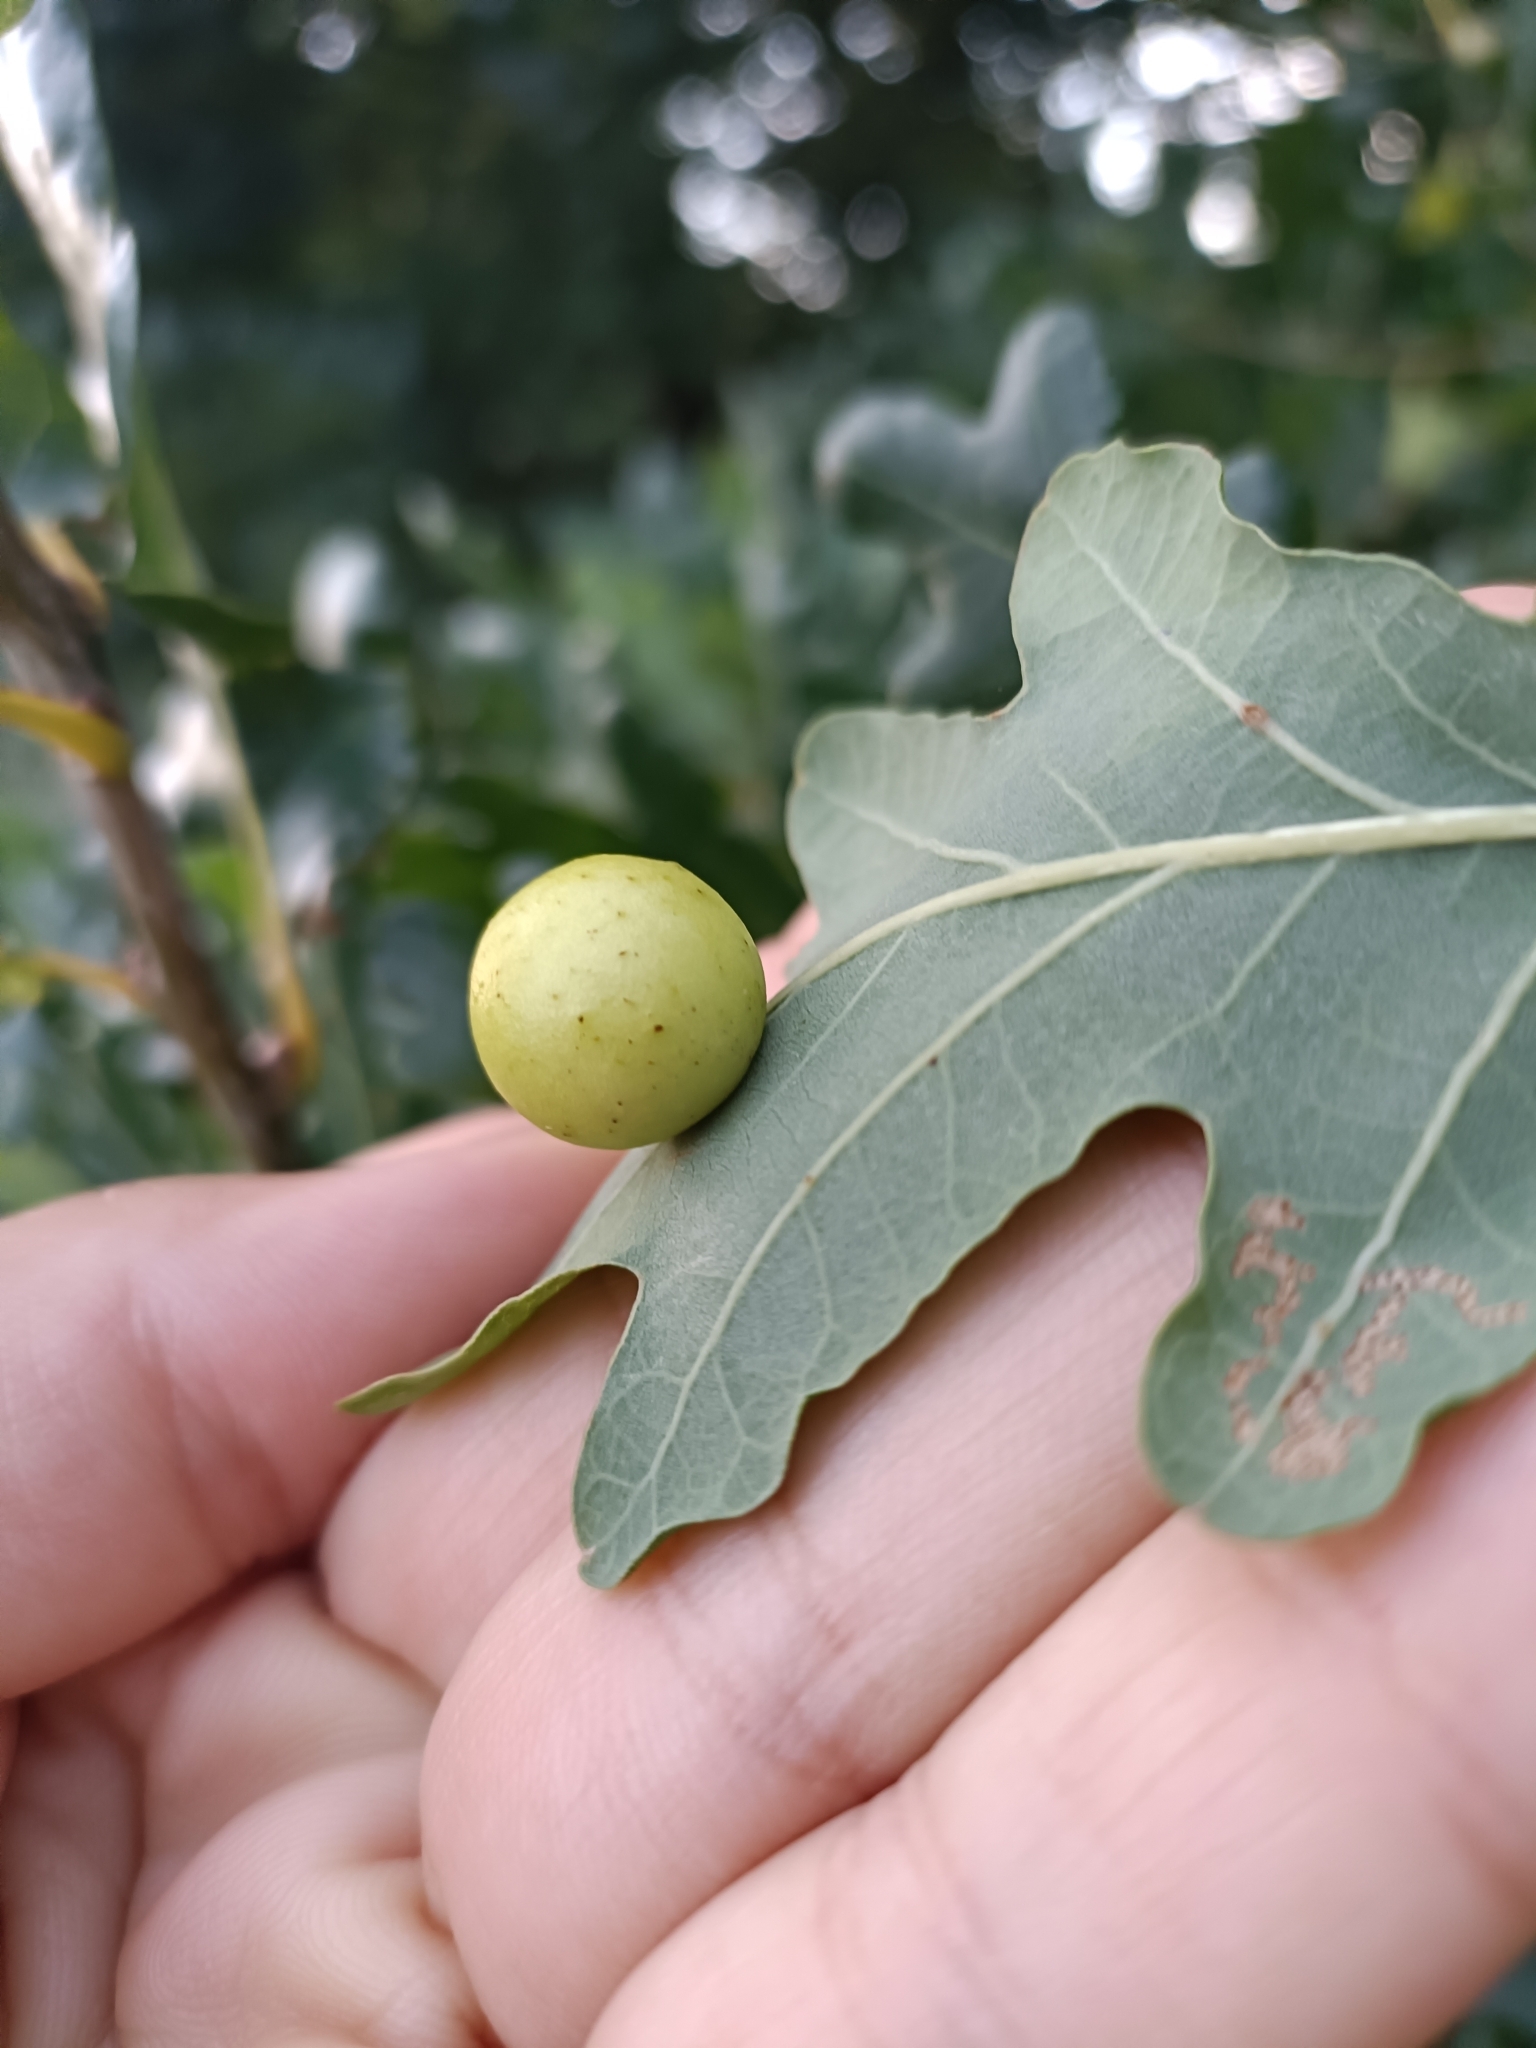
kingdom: Animalia
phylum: Arthropoda
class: Insecta
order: Hymenoptera
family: Cynipidae
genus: Cynips
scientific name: Cynips quercusfolii
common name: Cherry gall
